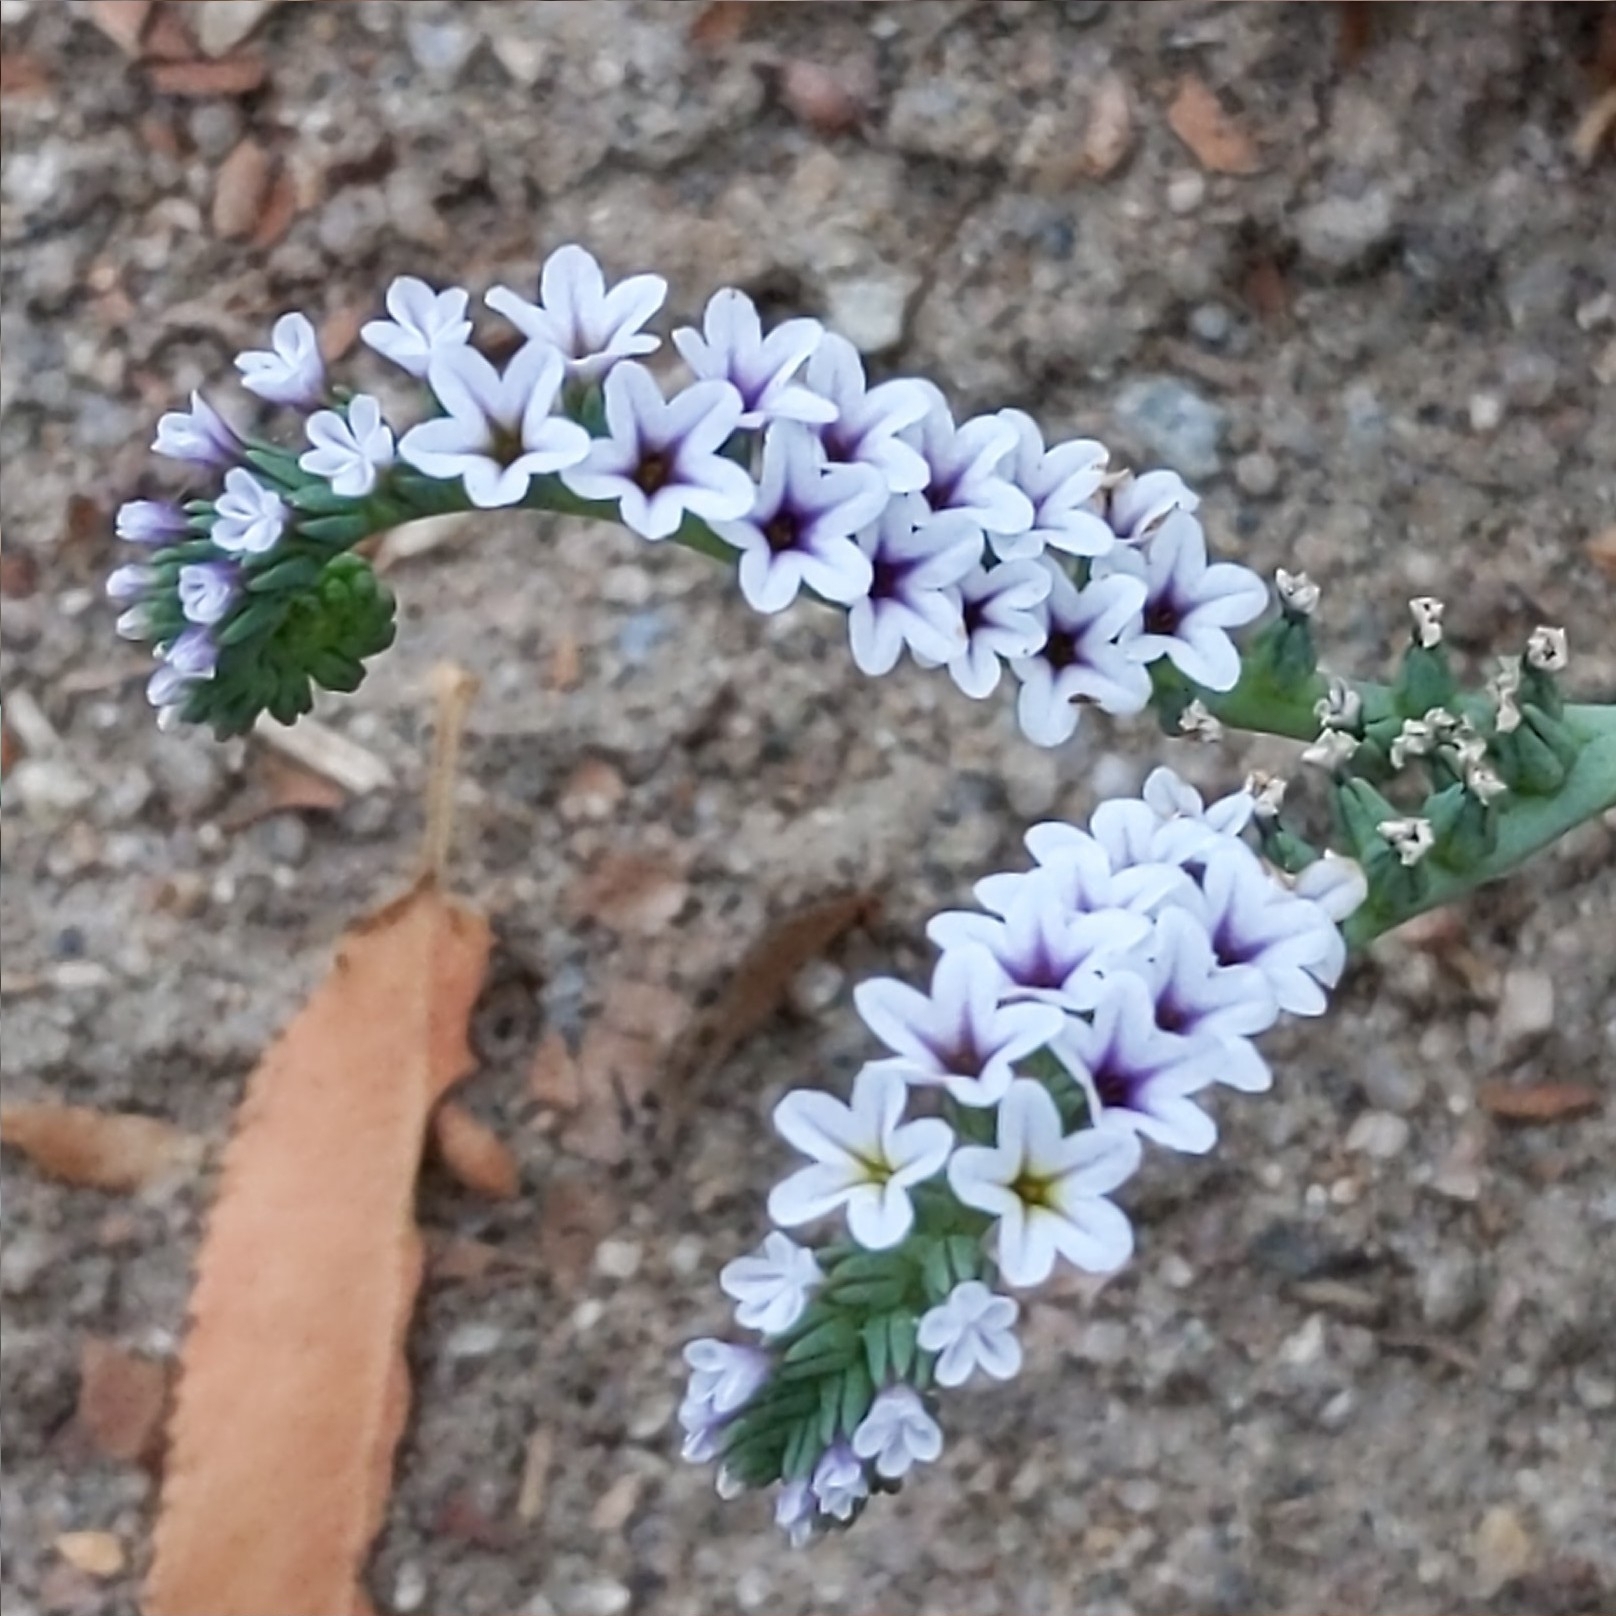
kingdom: Plantae
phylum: Tracheophyta
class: Magnoliopsida
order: Boraginales
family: Heliotropiaceae
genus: Heliotropium
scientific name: Heliotropium curassavicum
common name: Seaside heliotrope
